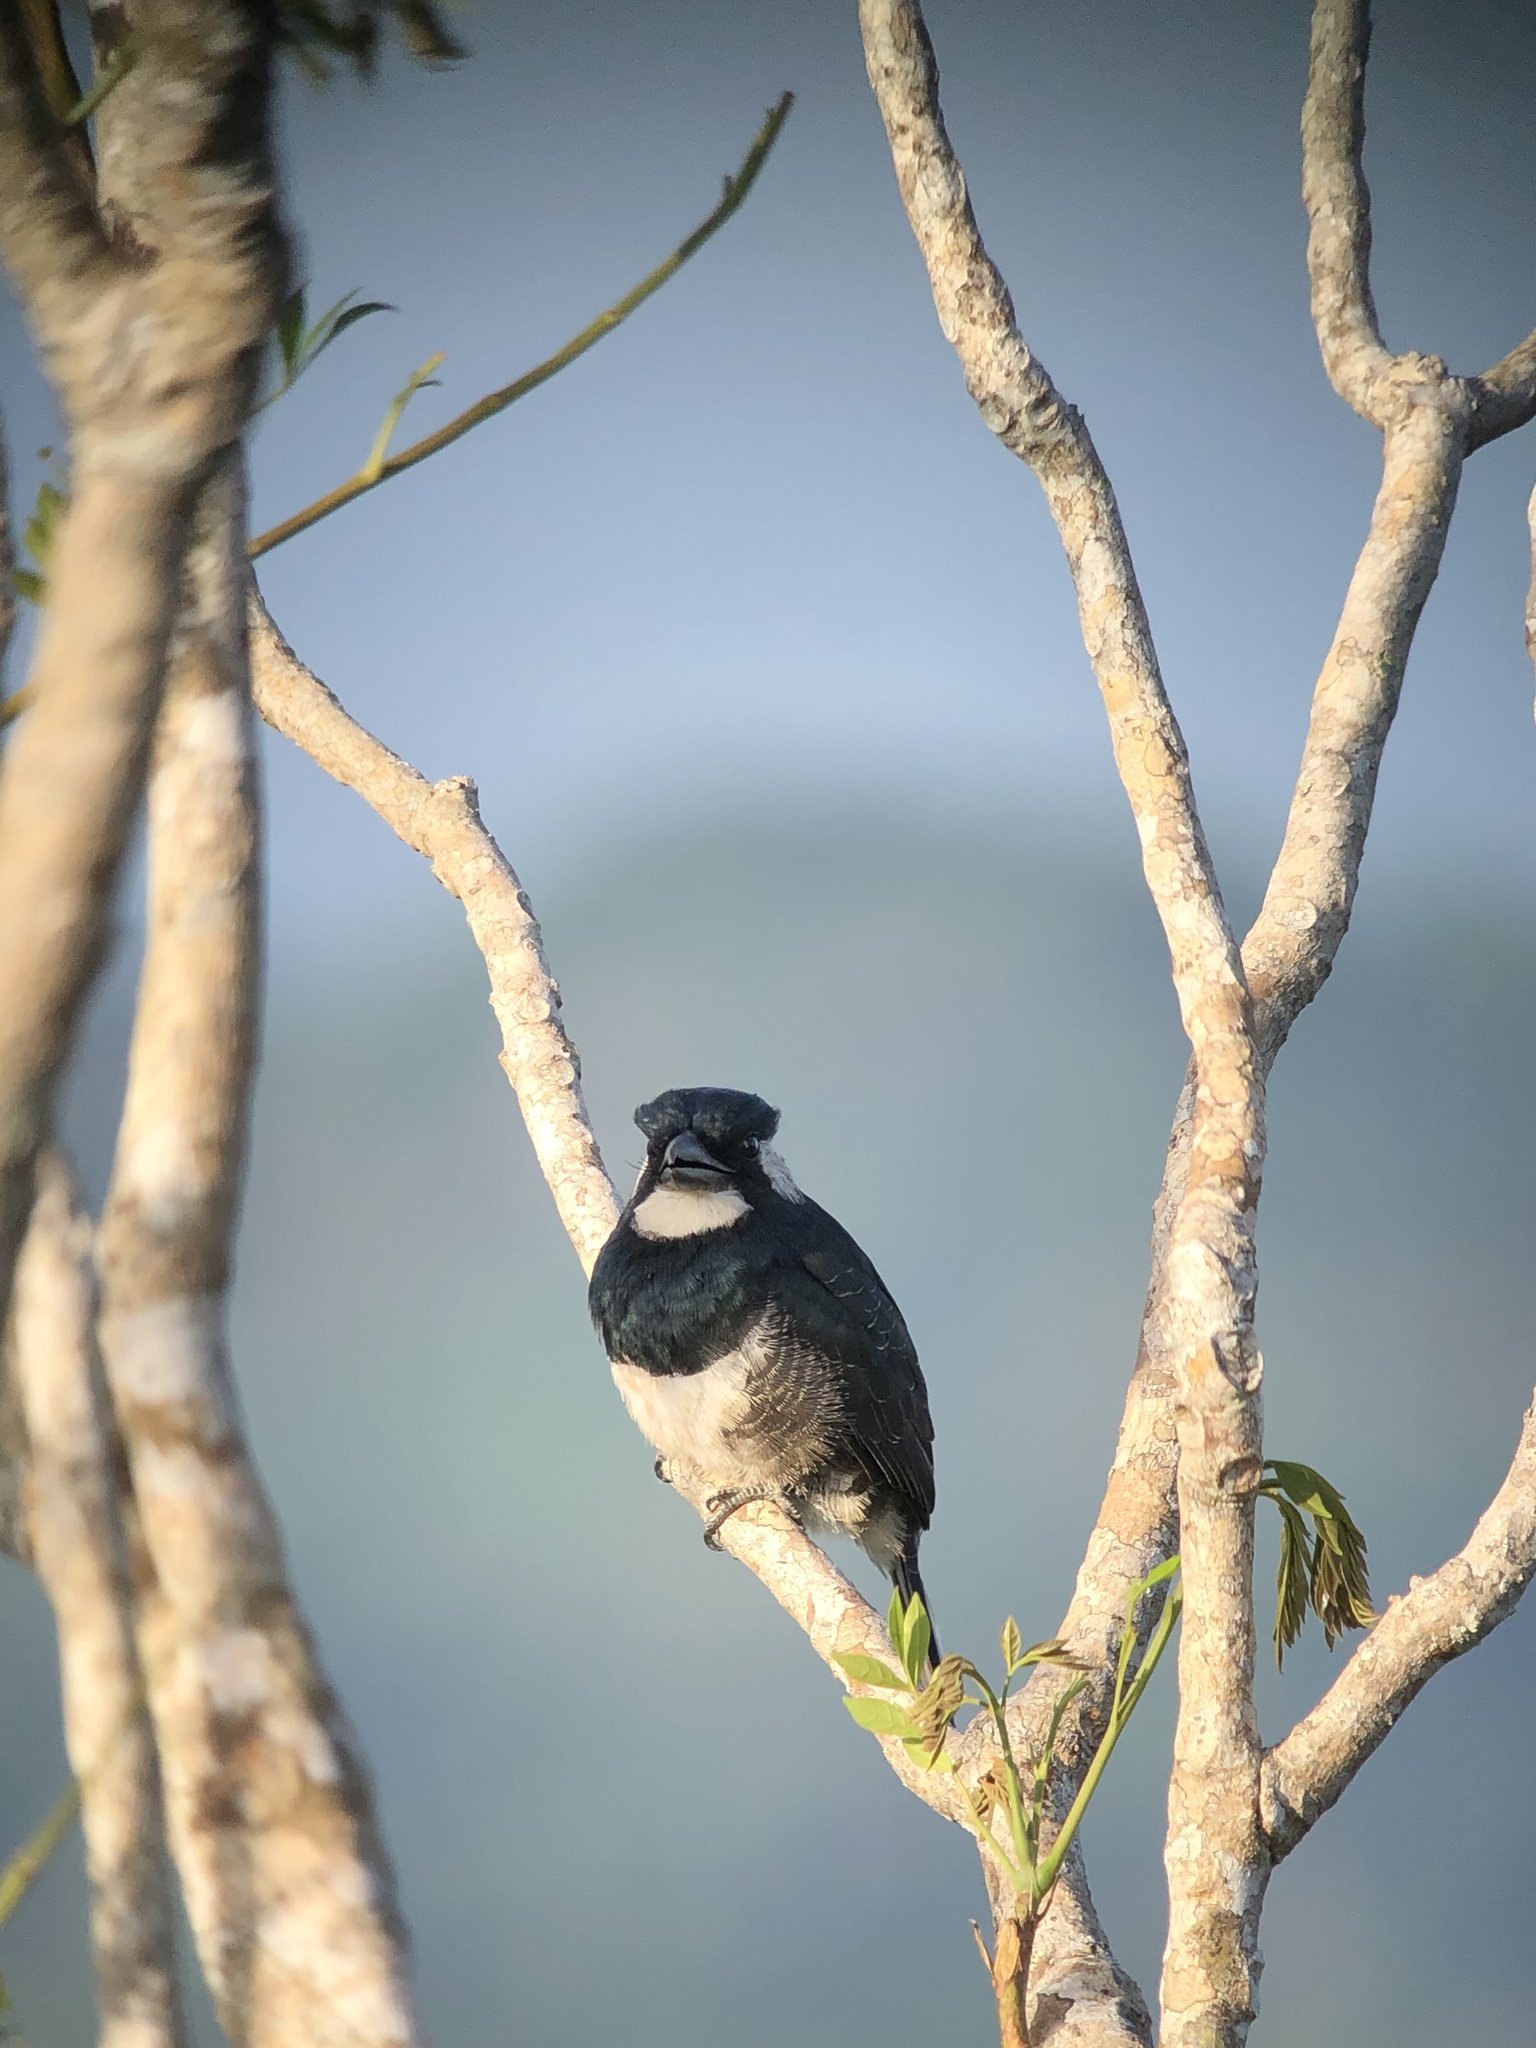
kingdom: Animalia
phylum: Chordata
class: Aves
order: Piciformes
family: Bucconidae
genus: Notharchus
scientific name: Notharchus pectoralis
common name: Black-breasted puffbird
